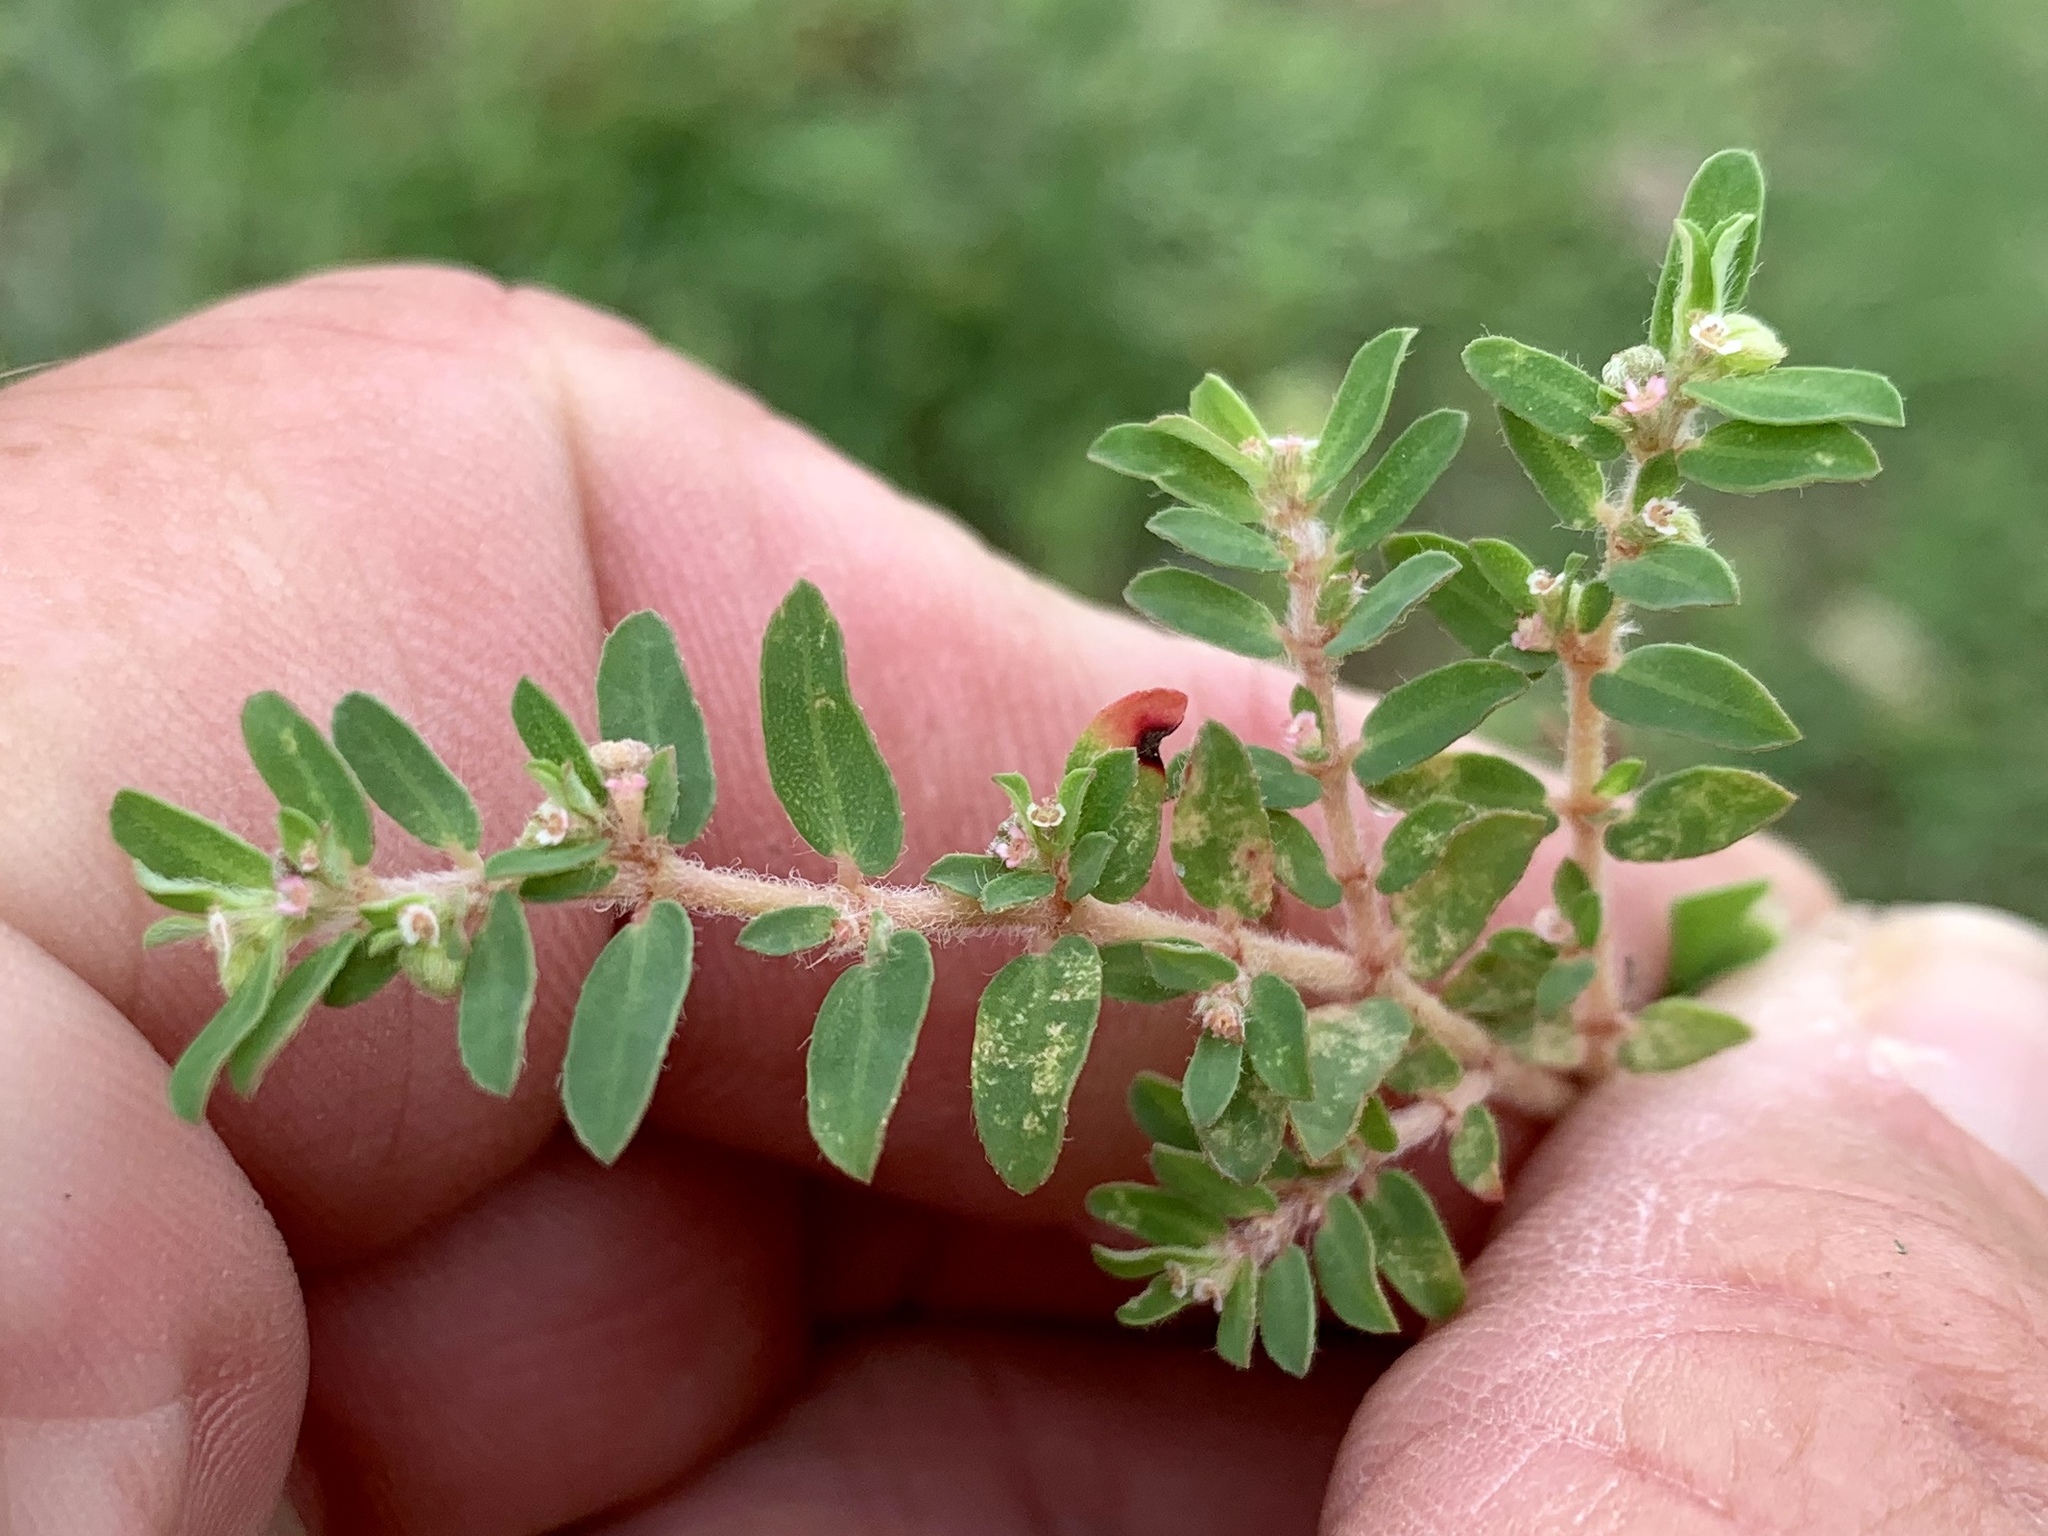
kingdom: Plantae
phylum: Tracheophyta
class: Magnoliopsida
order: Malpighiales
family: Euphorbiaceae
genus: Euphorbia
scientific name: Euphorbia maculata
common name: Spotted spurge
